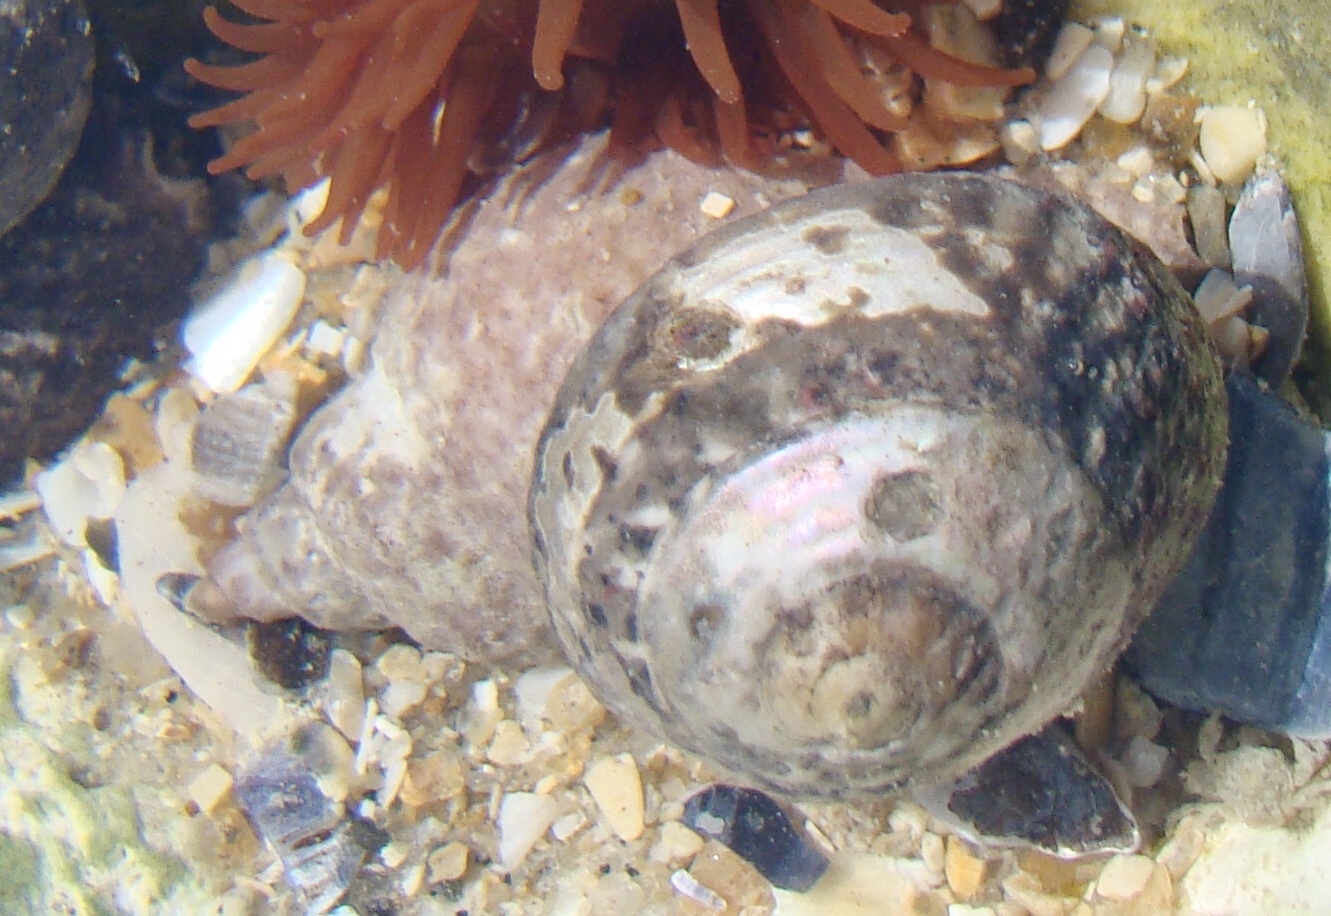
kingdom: Animalia
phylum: Mollusca
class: Gastropoda
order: Trochida
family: Trochidae
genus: Steromphala
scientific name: Steromphala umbilicalis
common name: Flat top shell
